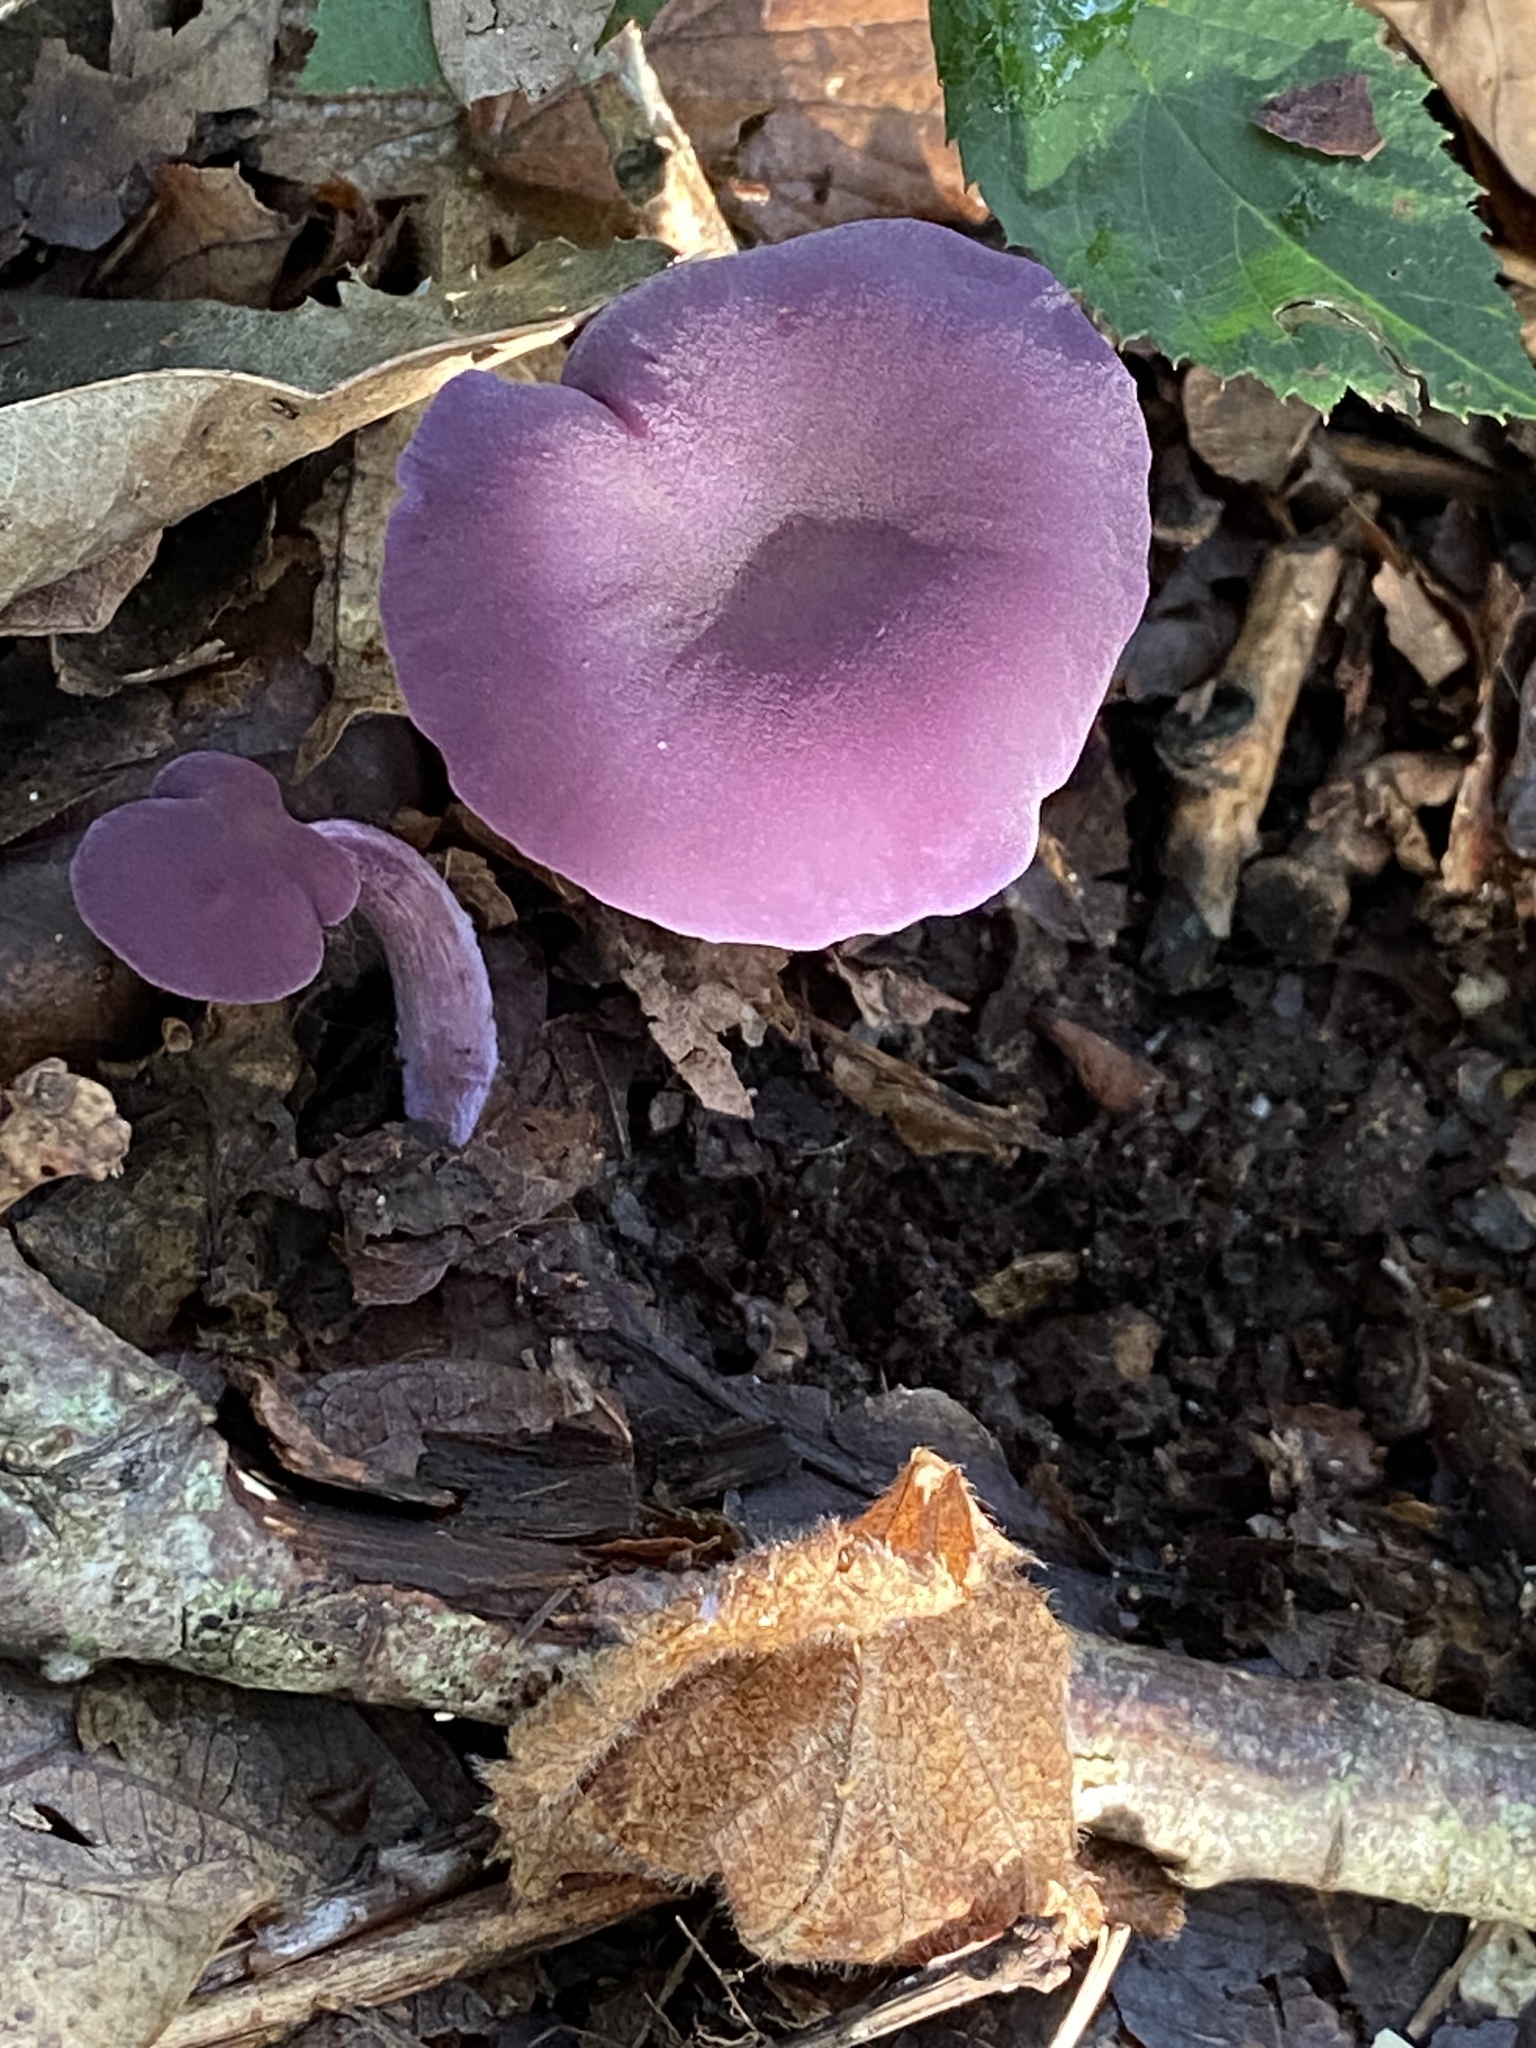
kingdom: Fungi
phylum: Basidiomycota
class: Agaricomycetes
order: Agaricales
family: Hydnangiaceae
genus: Laccaria
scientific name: Laccaria amethystina
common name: Amethyst deceiver
